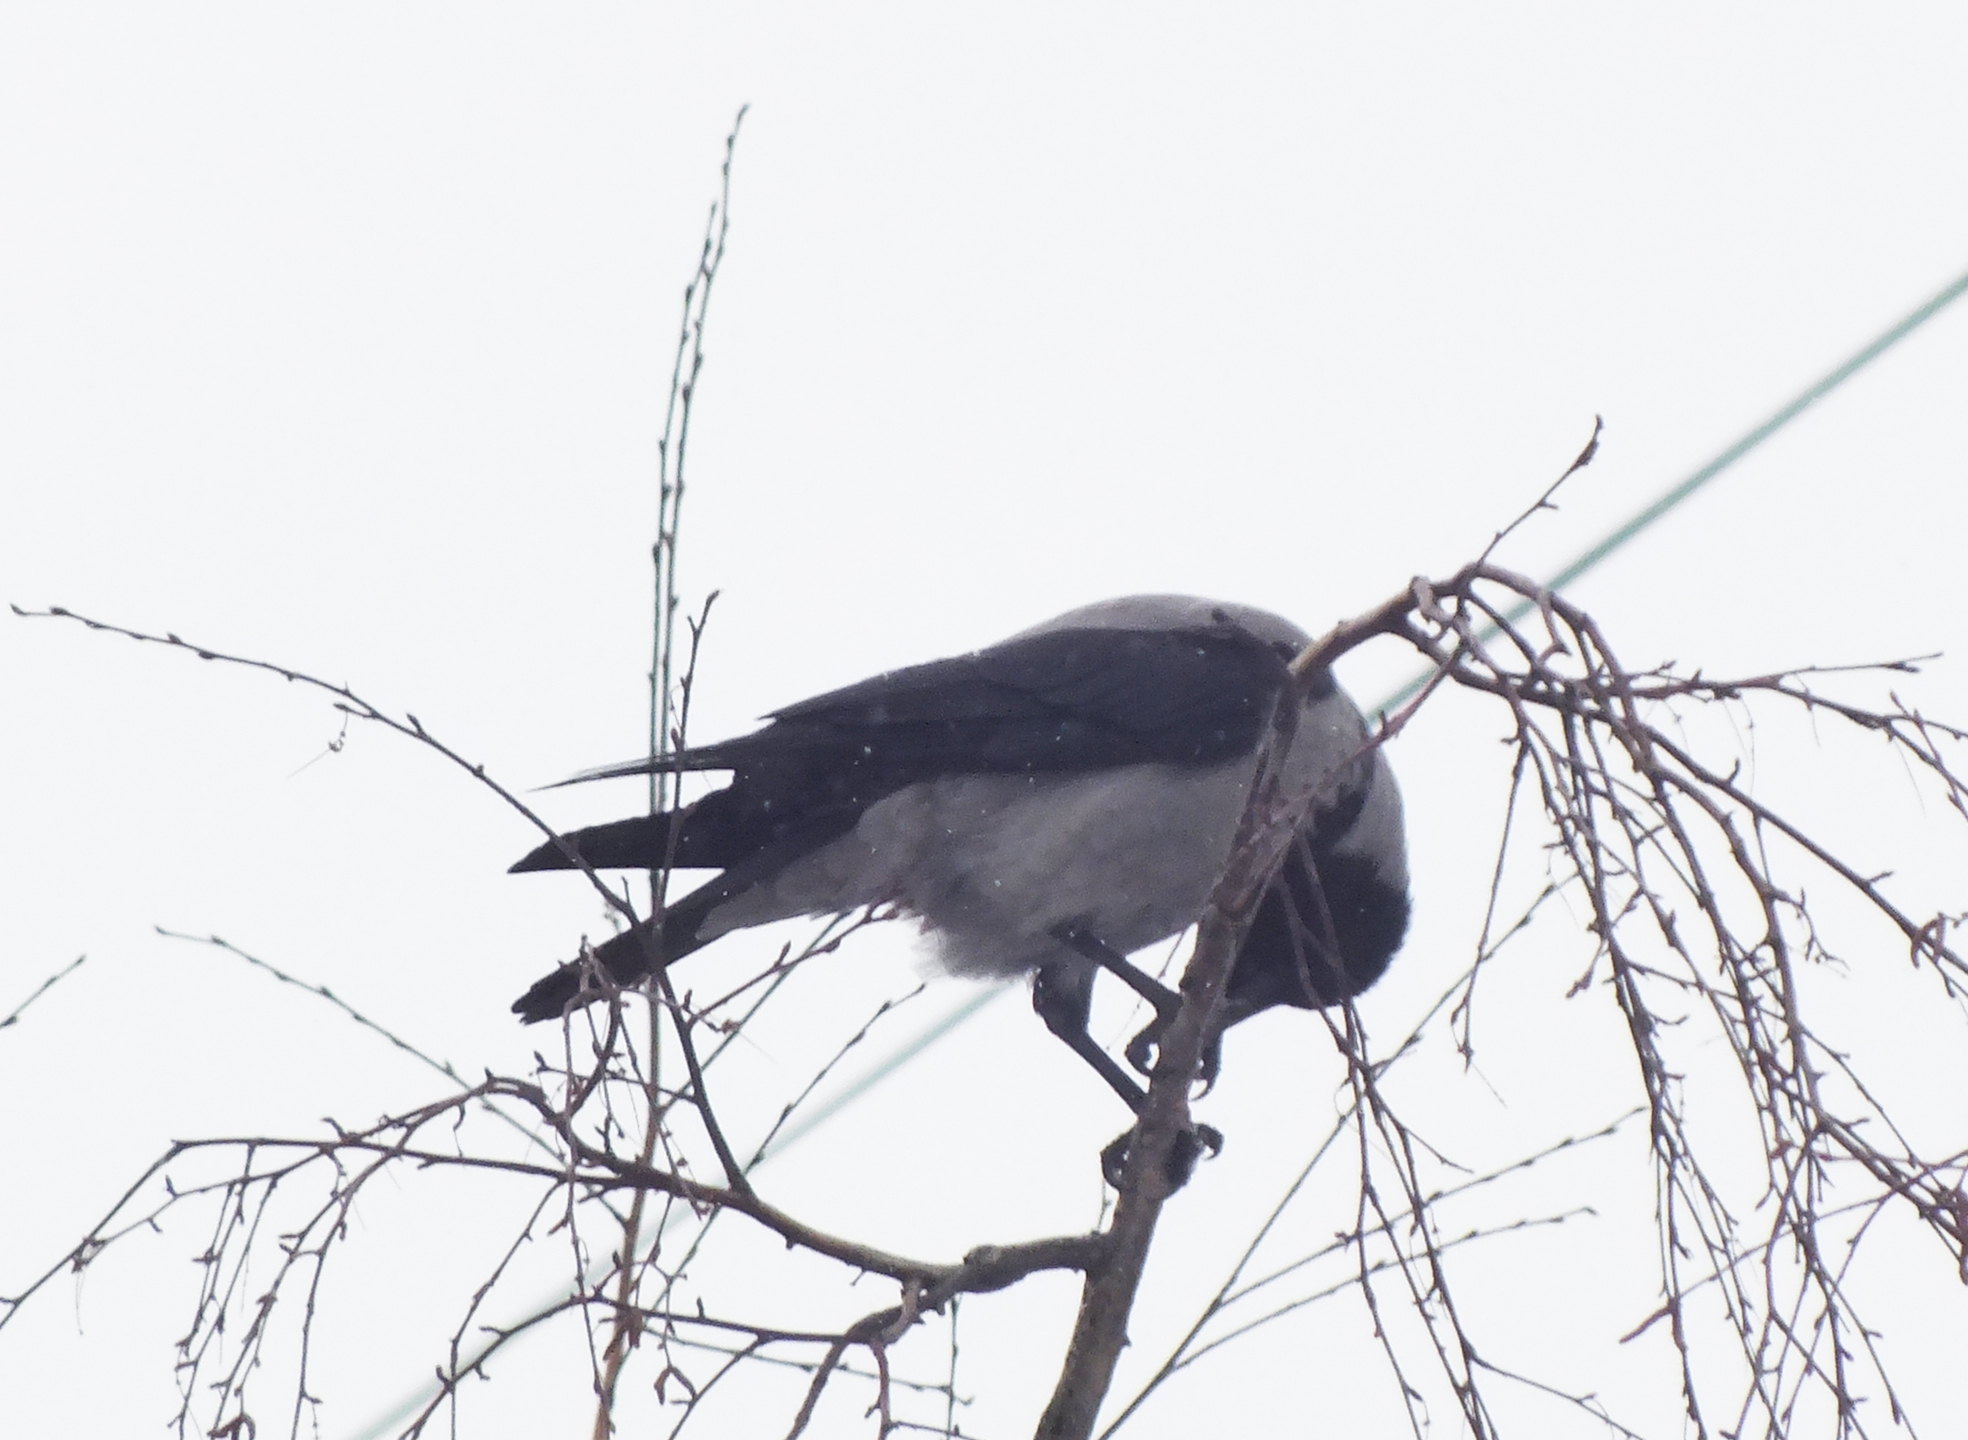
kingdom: Animalia
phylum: Chordata
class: Aves
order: Passeriformes
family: Corvidae
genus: Corvus
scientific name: Corvus cornix
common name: Hooded crow
